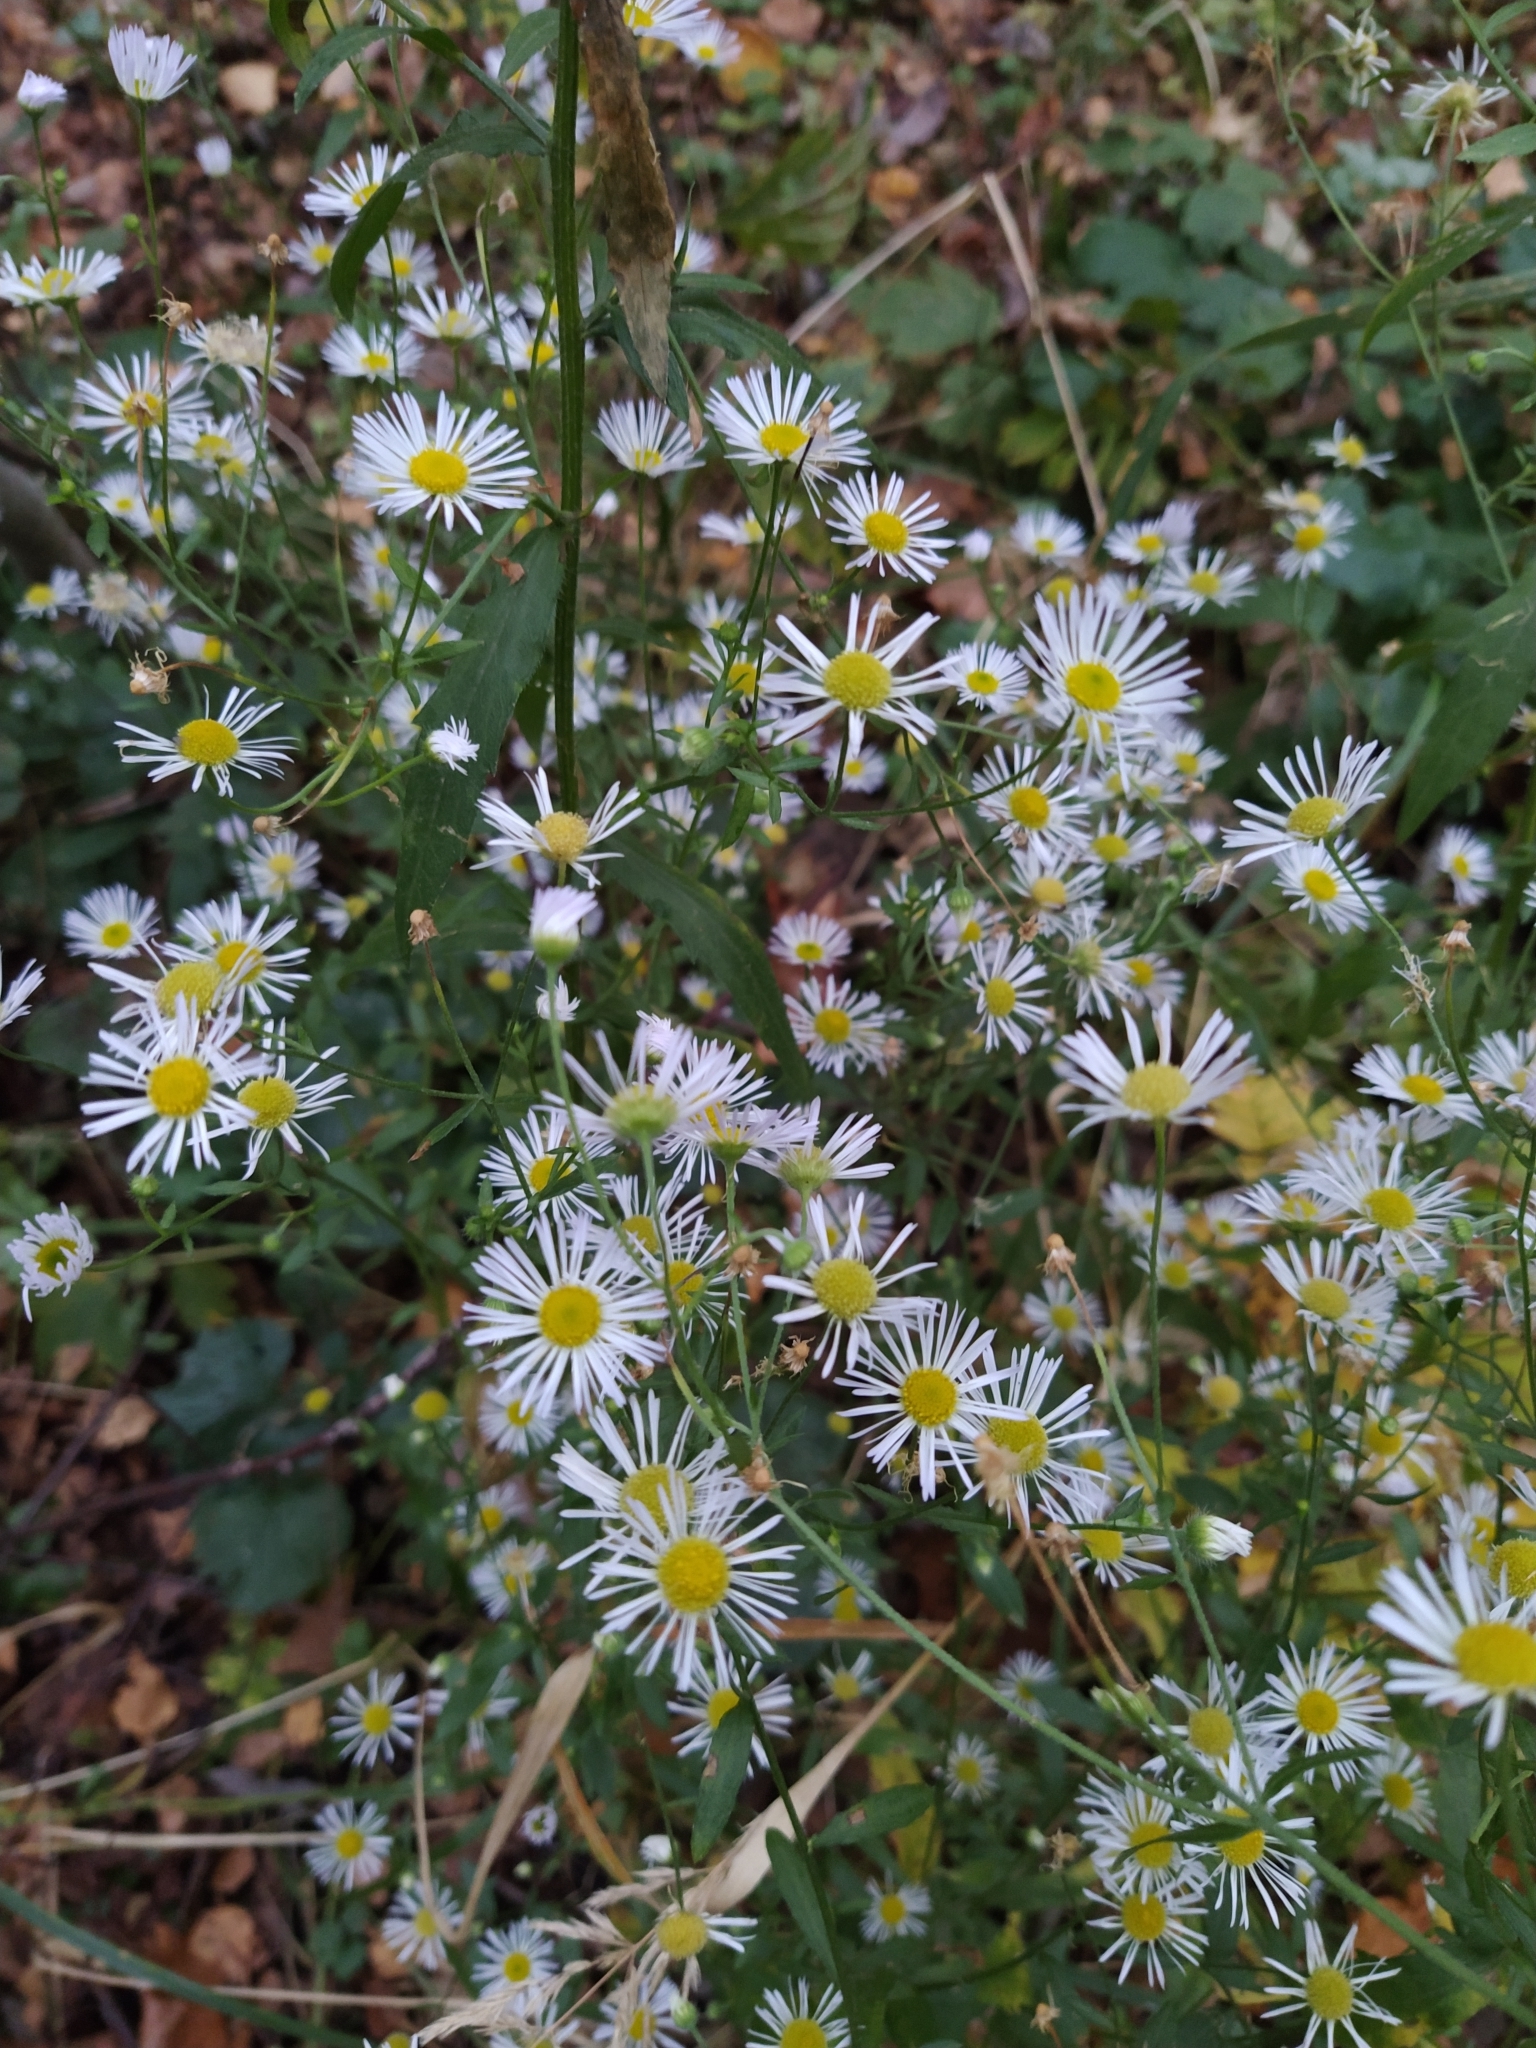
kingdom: Plantae
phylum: Tracheophyta
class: Magnoliopsida
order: Asterales
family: Asteraceae
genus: Erigeron
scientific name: Erigeron annuus
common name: Tall fleabane
